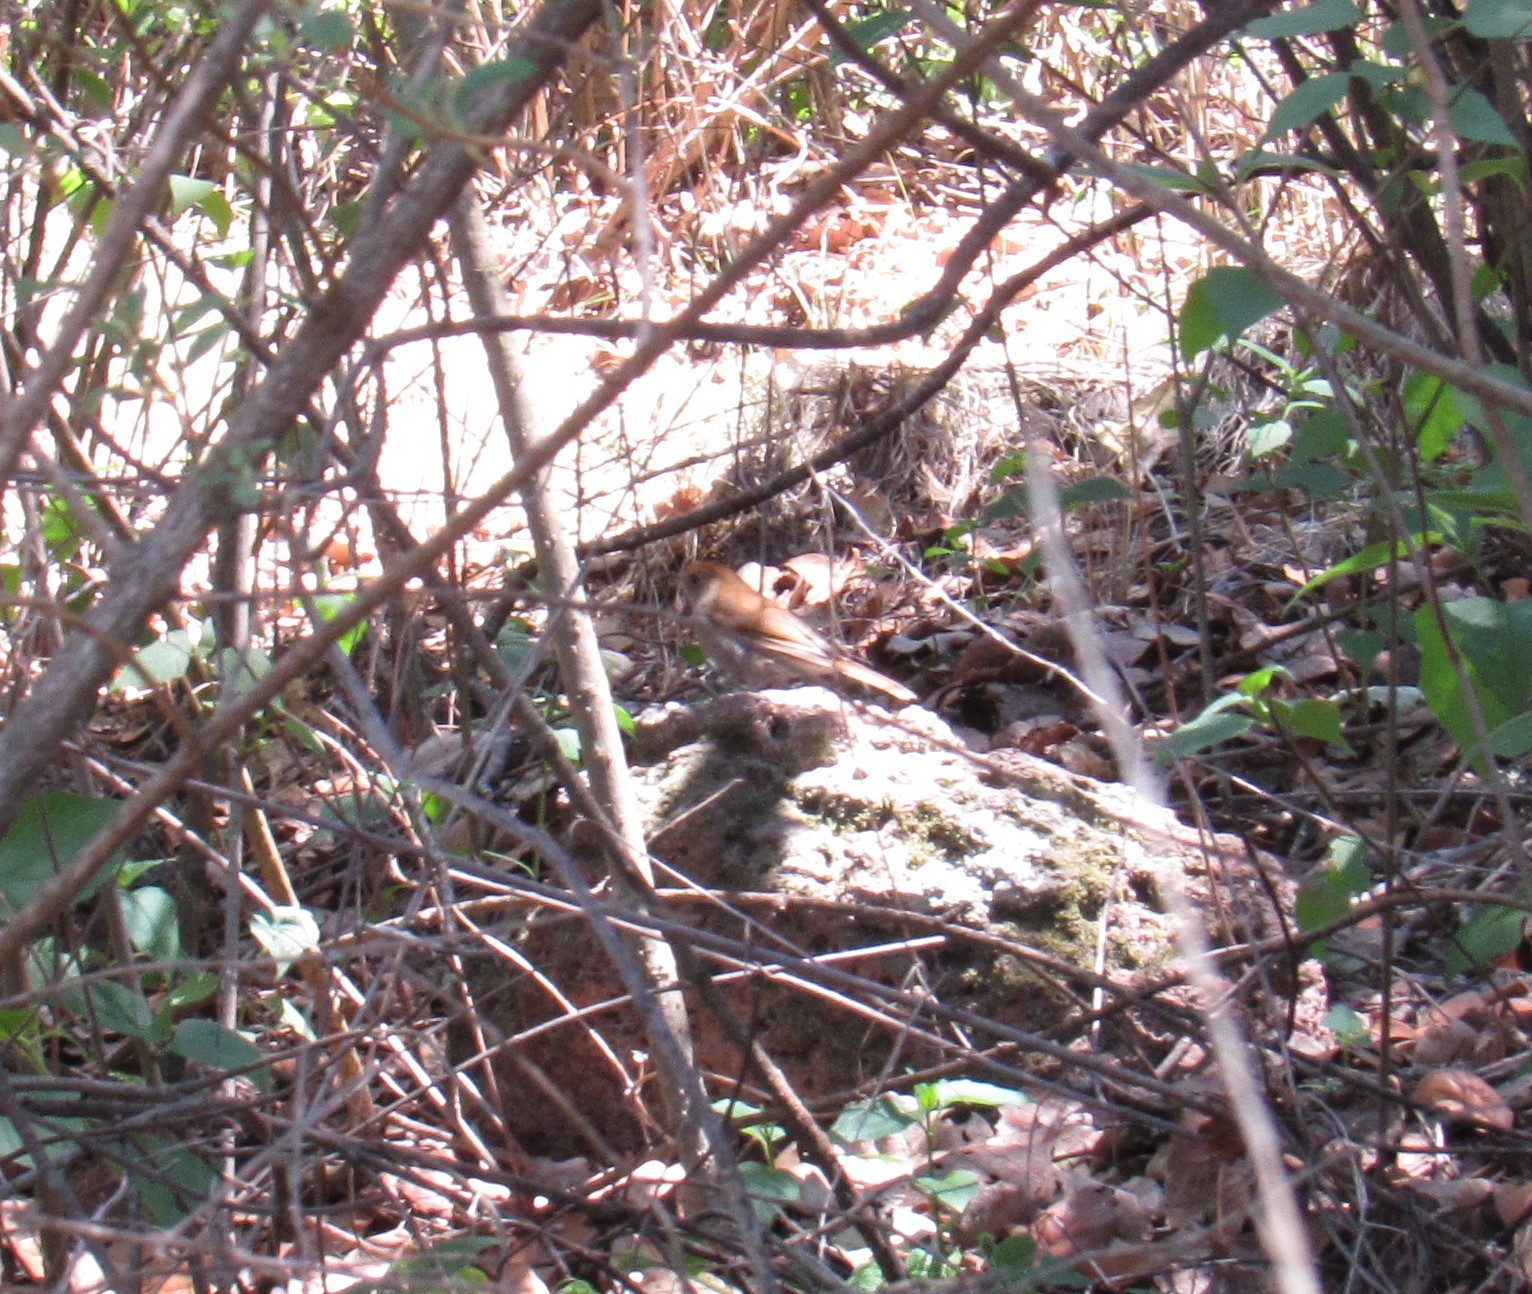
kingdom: Animalia
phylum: Chordata
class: Aves
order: Passeriformes
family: Turdidae
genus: Catharus
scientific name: Catharus aurantiirostris
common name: Orange-billed nightingale-thrush
